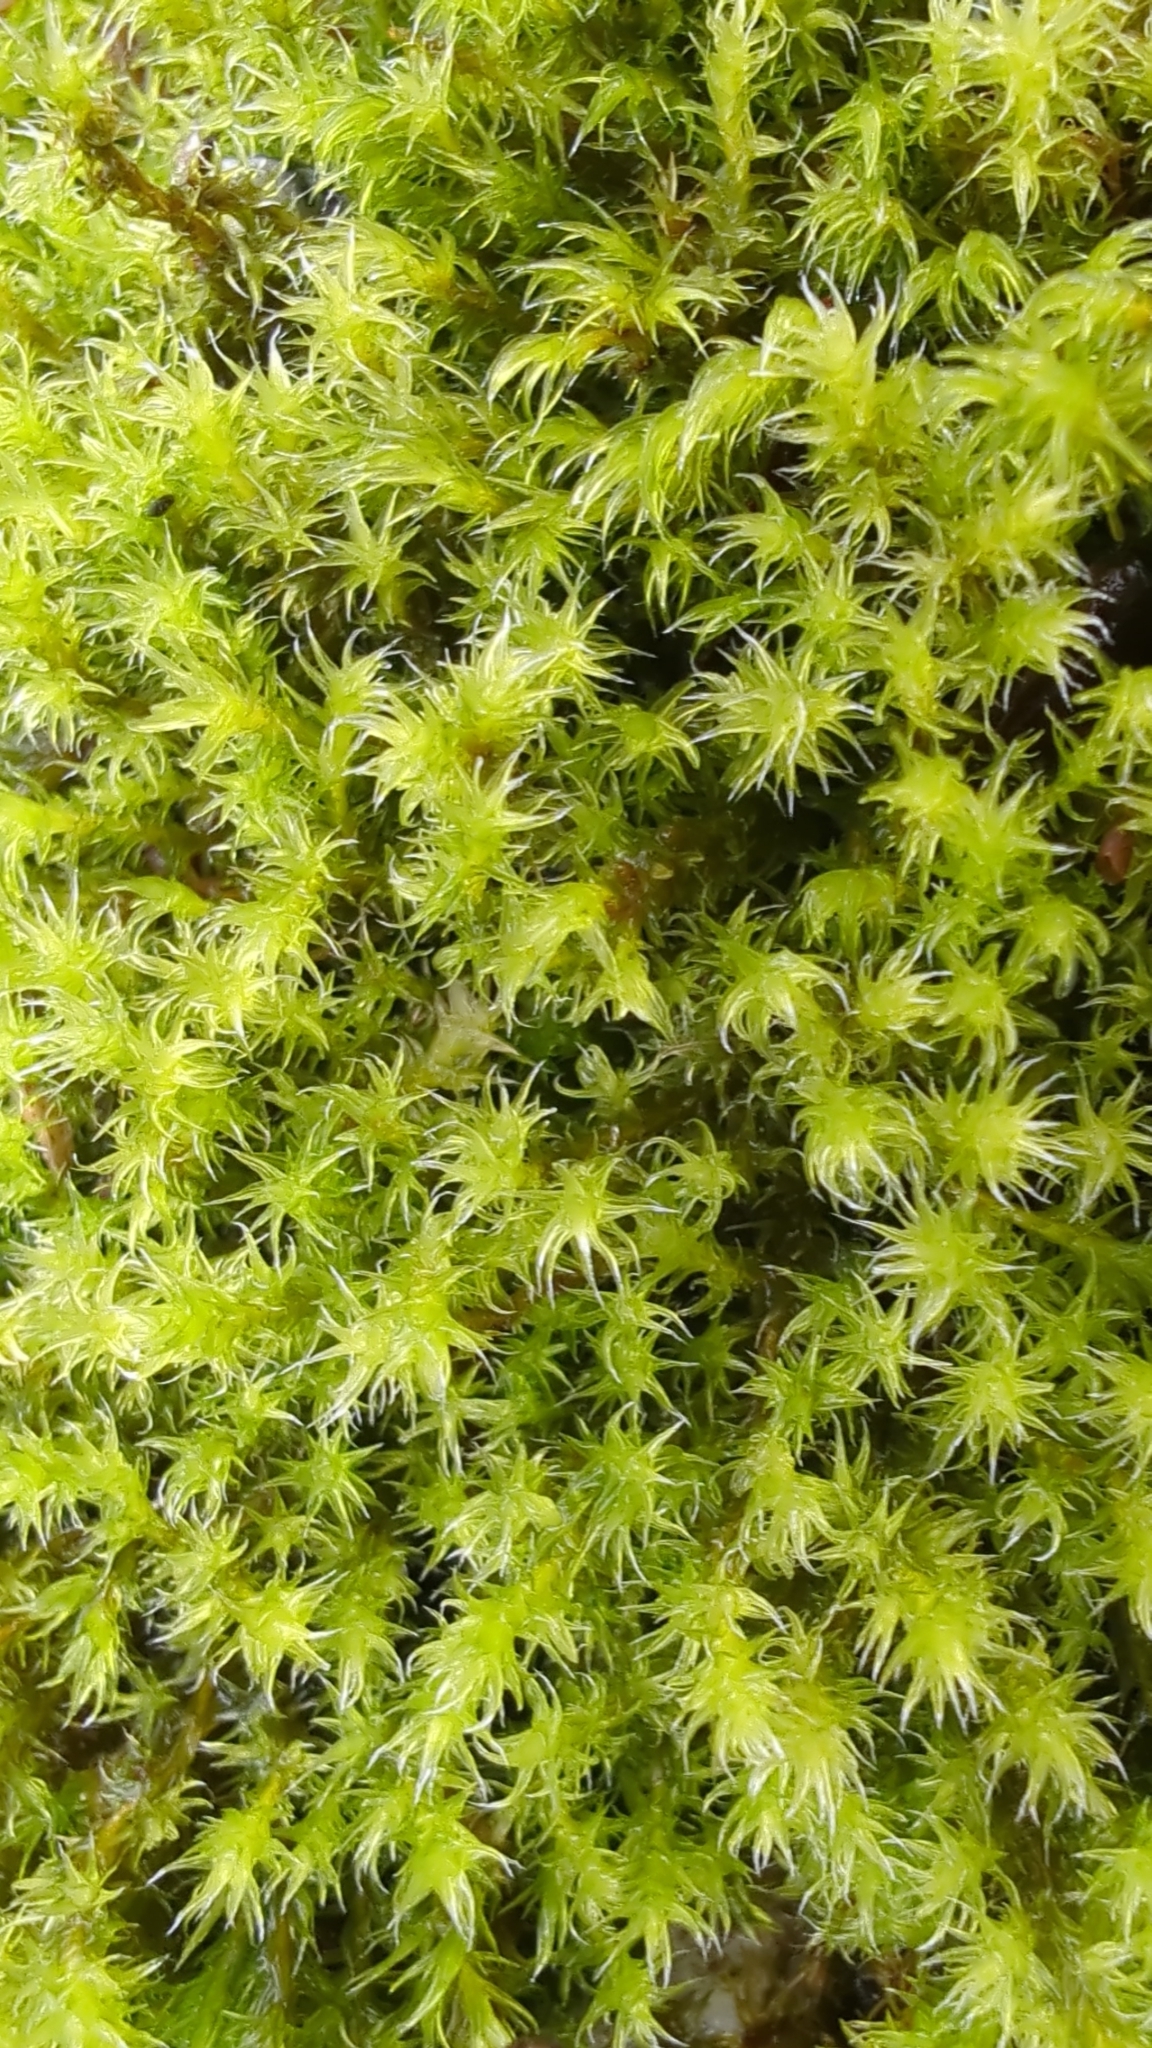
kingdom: Plantae
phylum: Bryophyta
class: Bryopsida
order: Grimmiales
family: Grimmiaceae
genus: Niphotrichum
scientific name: Niphotrichum elongatum
